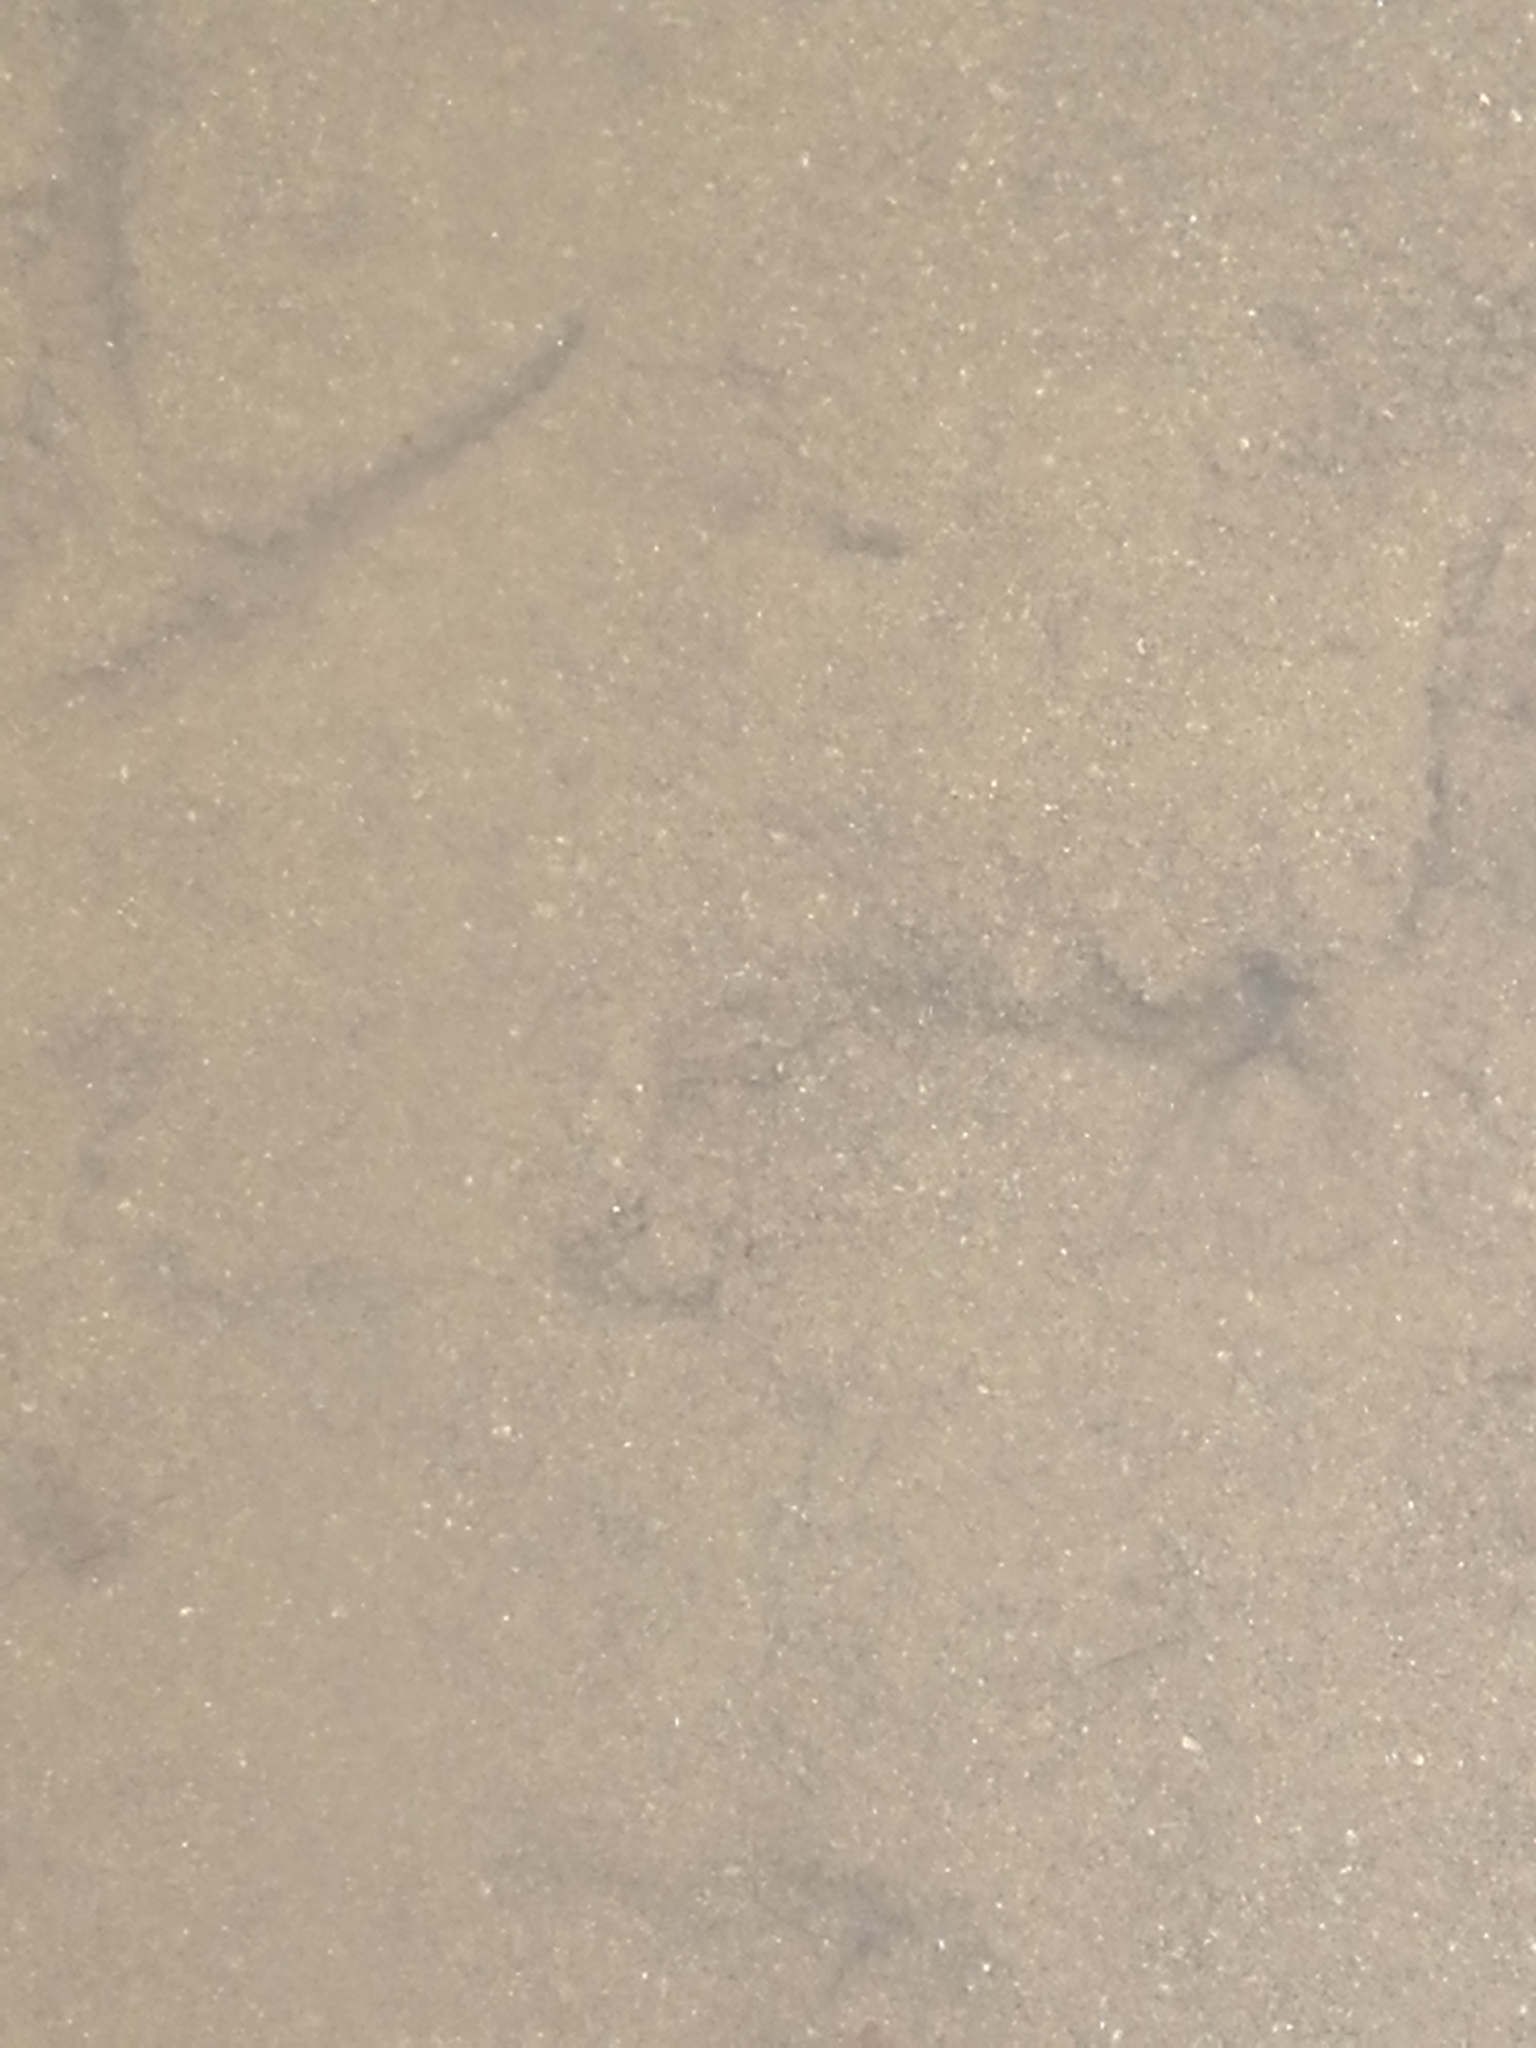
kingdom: Animalia
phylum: Chordata
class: Aves
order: Charadriiformes
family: Recurvirostridae
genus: Himantopus
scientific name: Himantopus leucocephalus
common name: White-headed stilt
